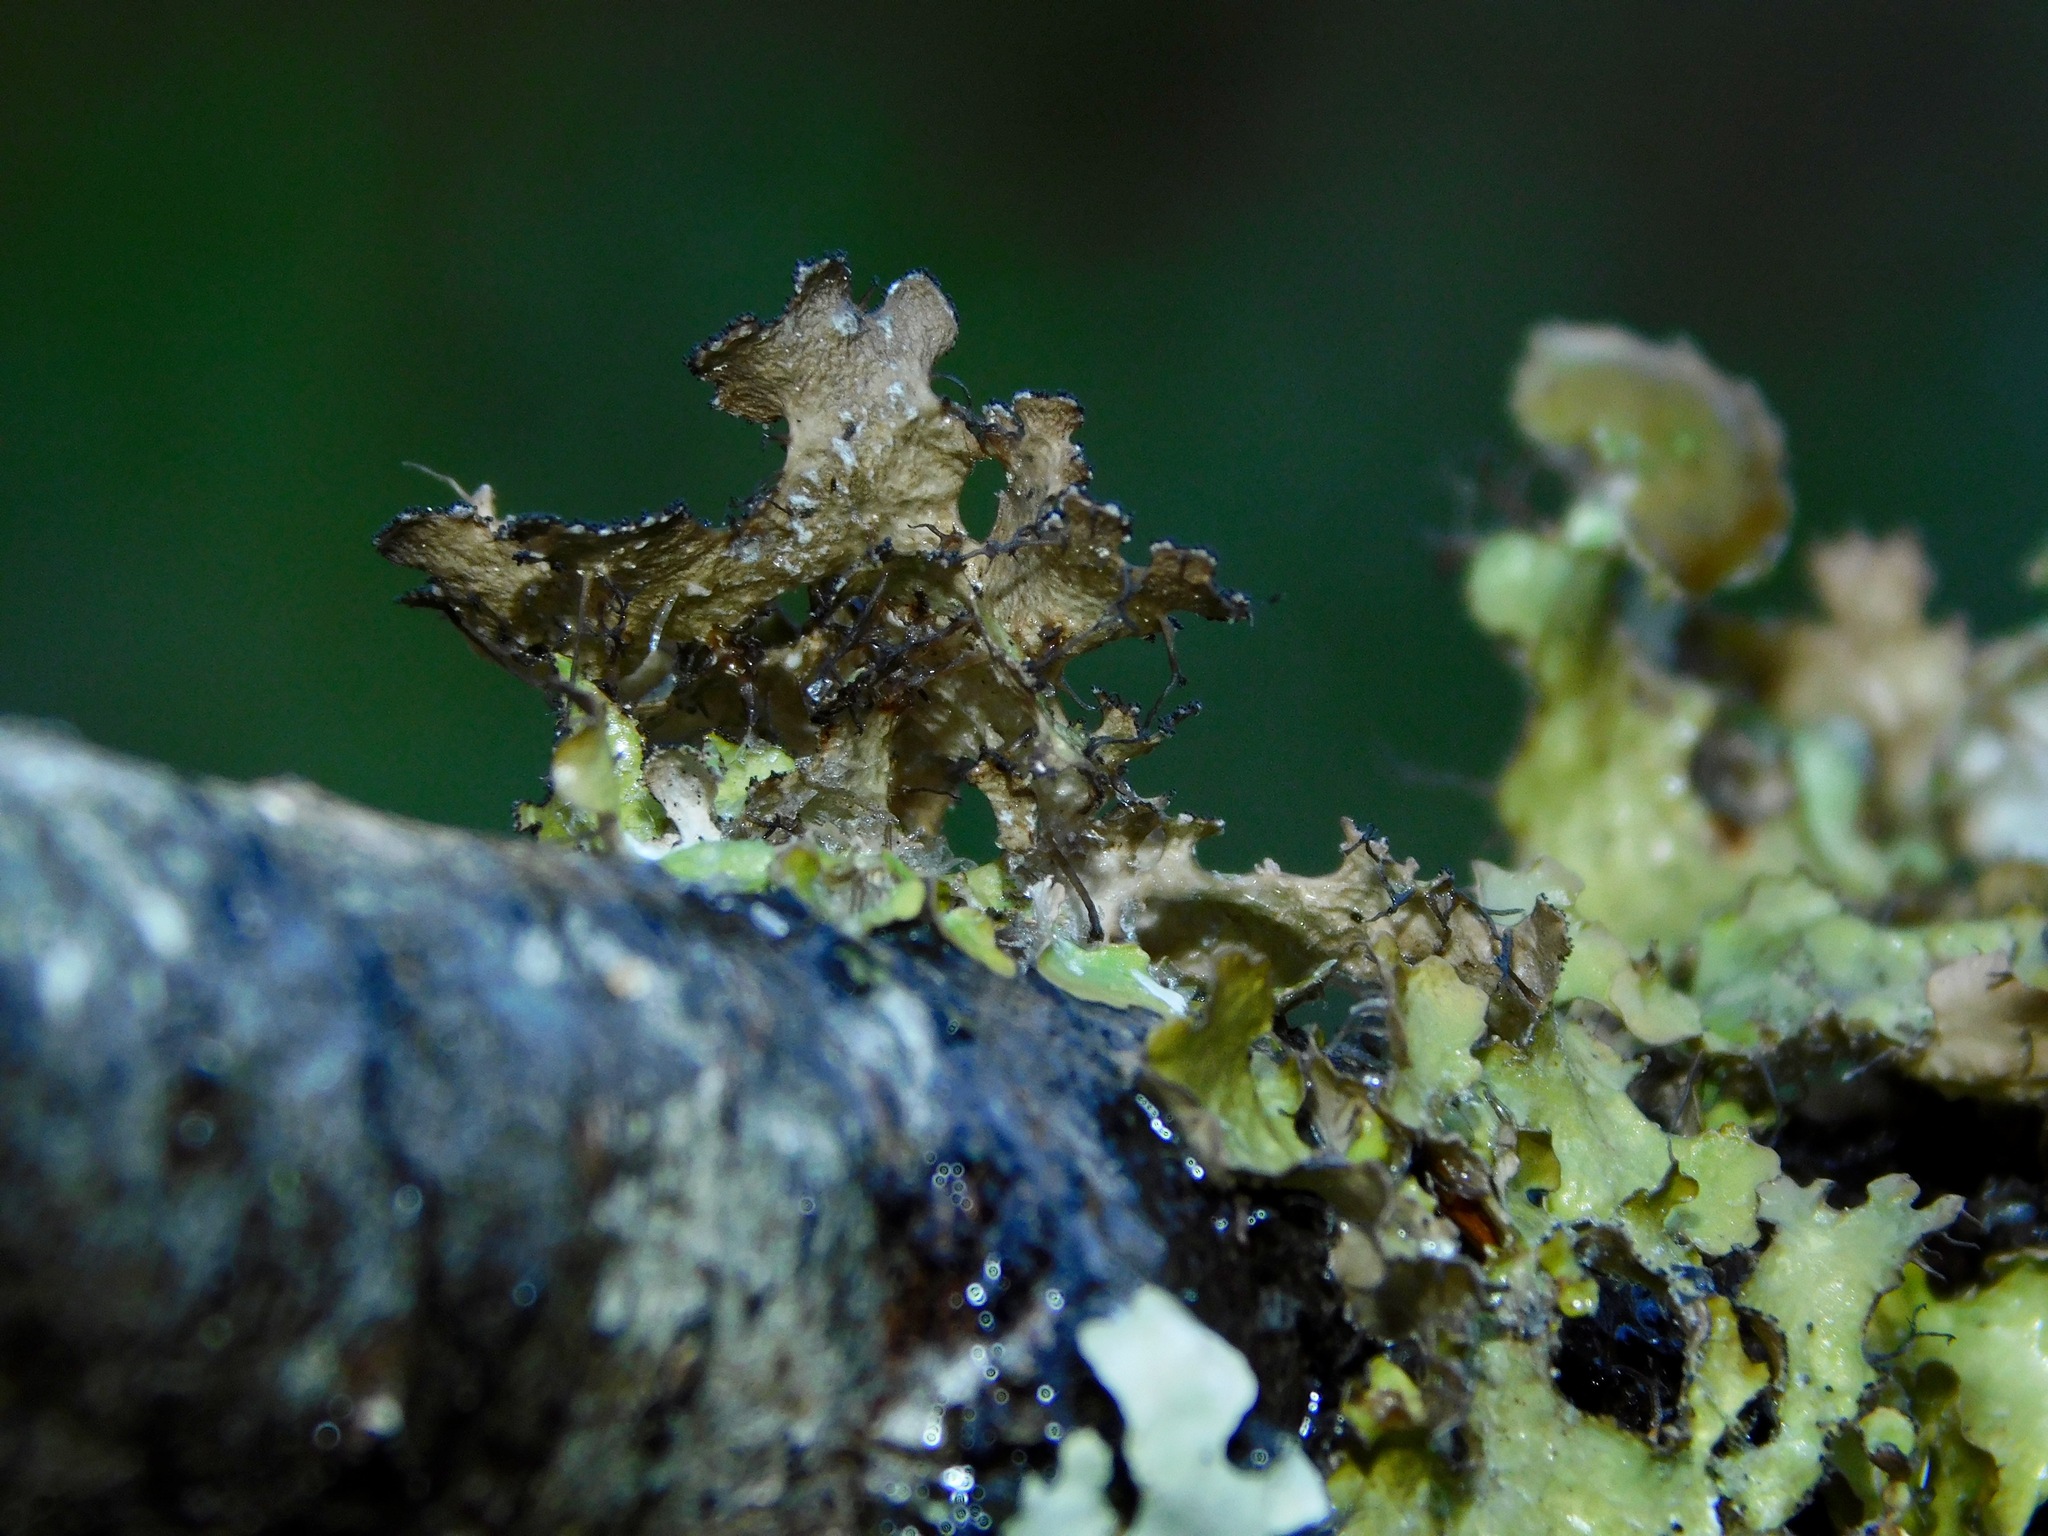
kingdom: Fungi
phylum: Ascomycota
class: Lecanoromycetes
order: Lecanorales
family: Parmeliaceae
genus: Nephromopsis
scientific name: Nephromopsis americana
